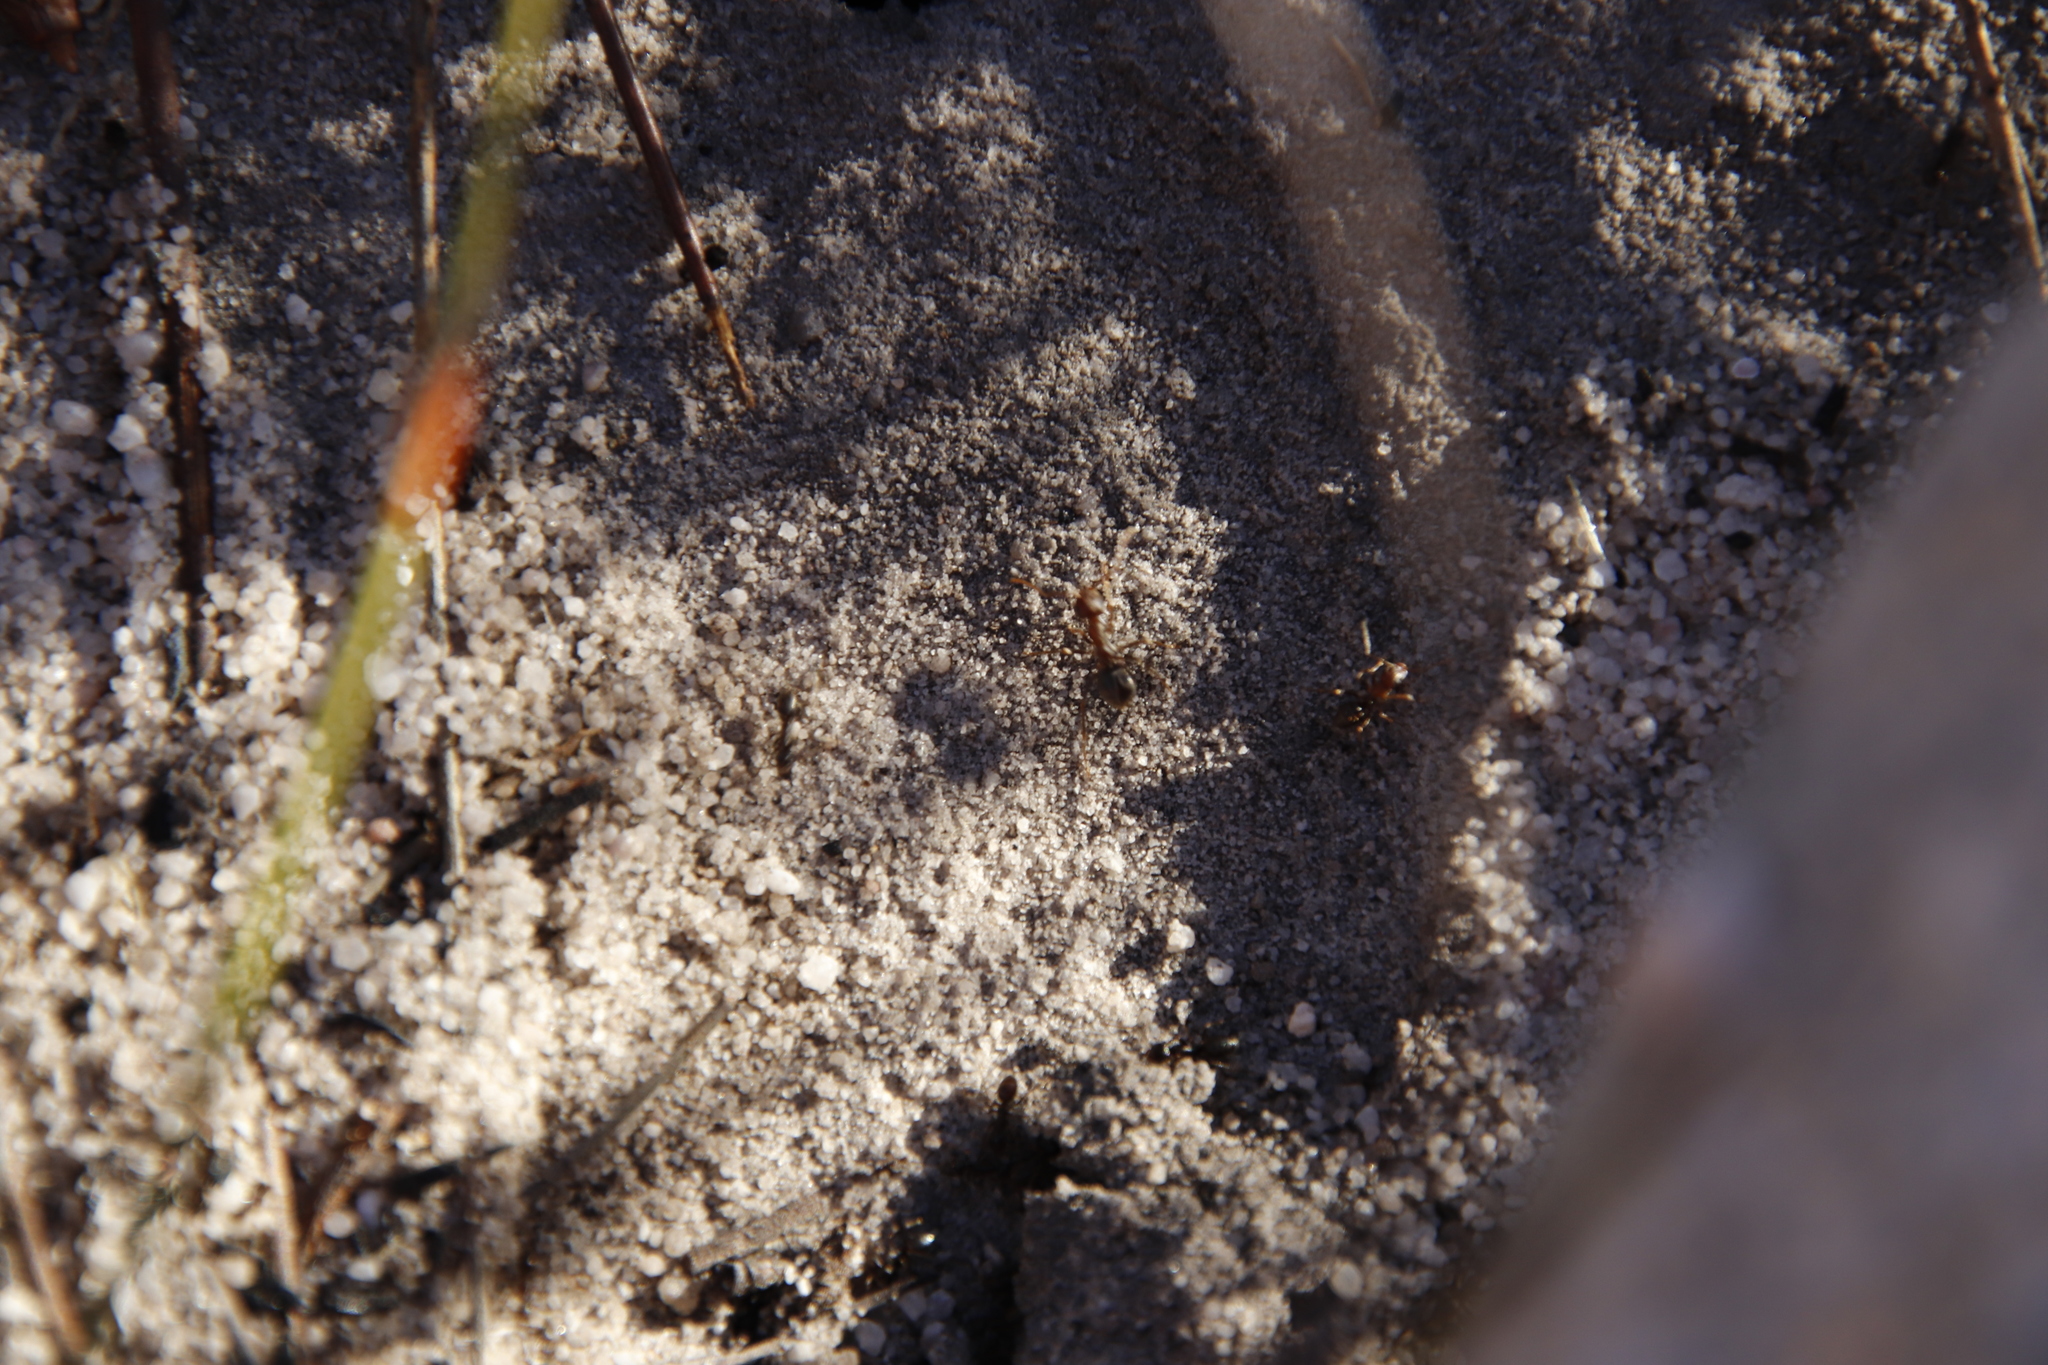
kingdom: Animalia
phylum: Arthropoda
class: Insecta
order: Hymenoptera
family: Formicidae
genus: Anoplolepis
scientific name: Anoplolepis steingroeveri
